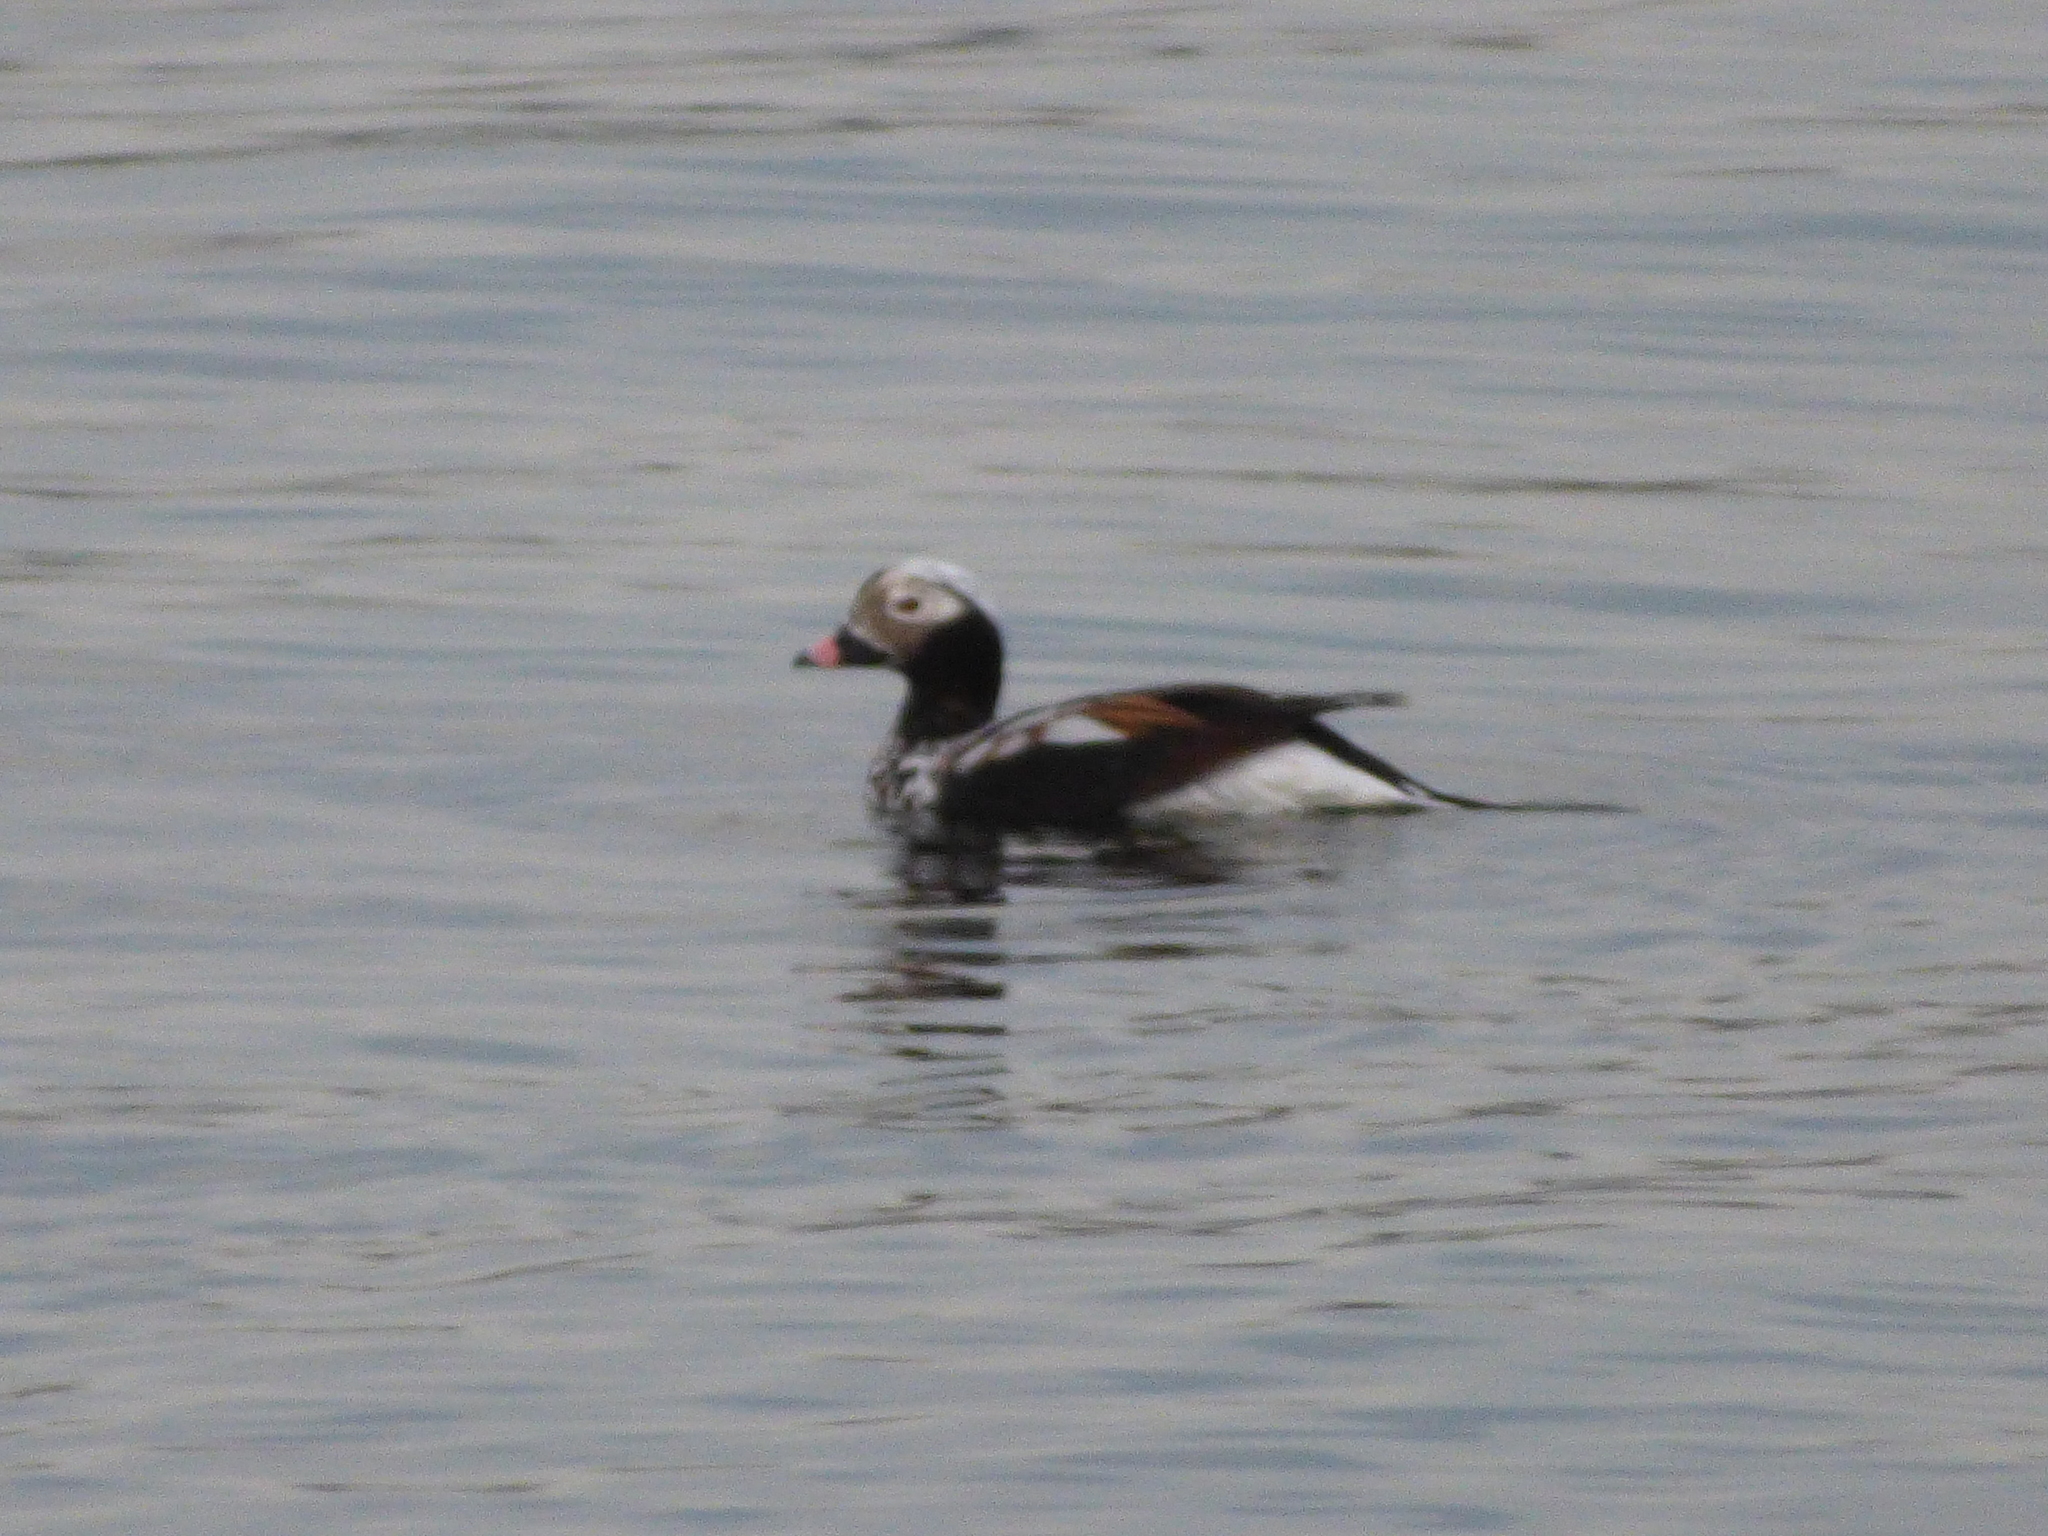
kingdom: Animalia
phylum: Chordata
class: Aves
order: Anseriformes
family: Anatidae
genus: Clangula
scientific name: Clangula hyemalis
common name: Long-tailed duck
